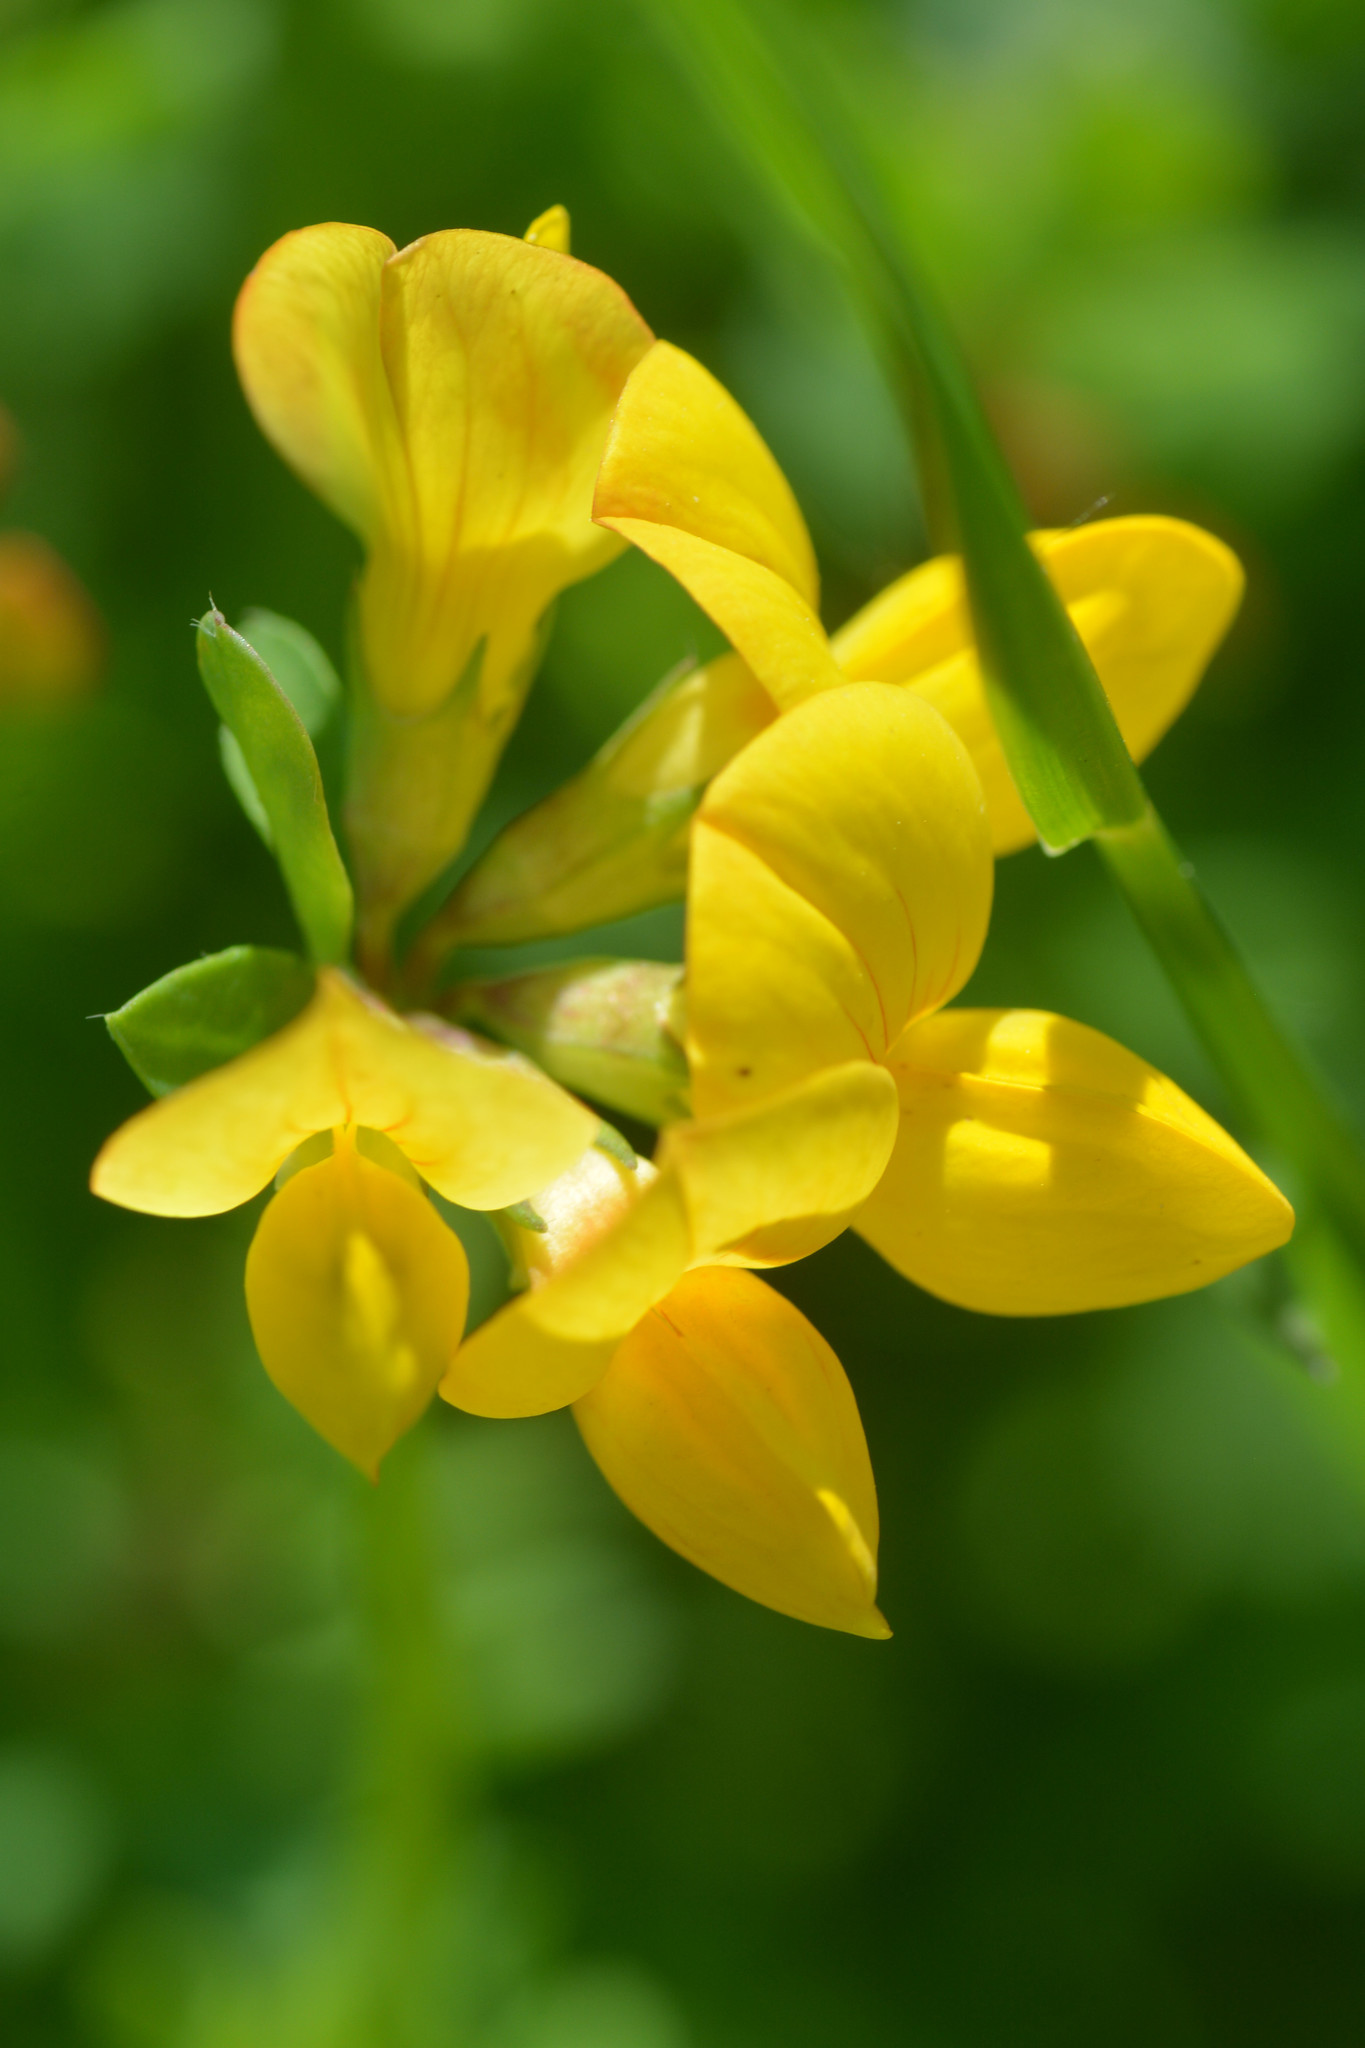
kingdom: Plantae
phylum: Tracheophyta
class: Magnoliopsida
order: Fabales
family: Fabaceae
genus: Lotus
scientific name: Lotus corniculatus
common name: Common bird's-foot-trefoil
